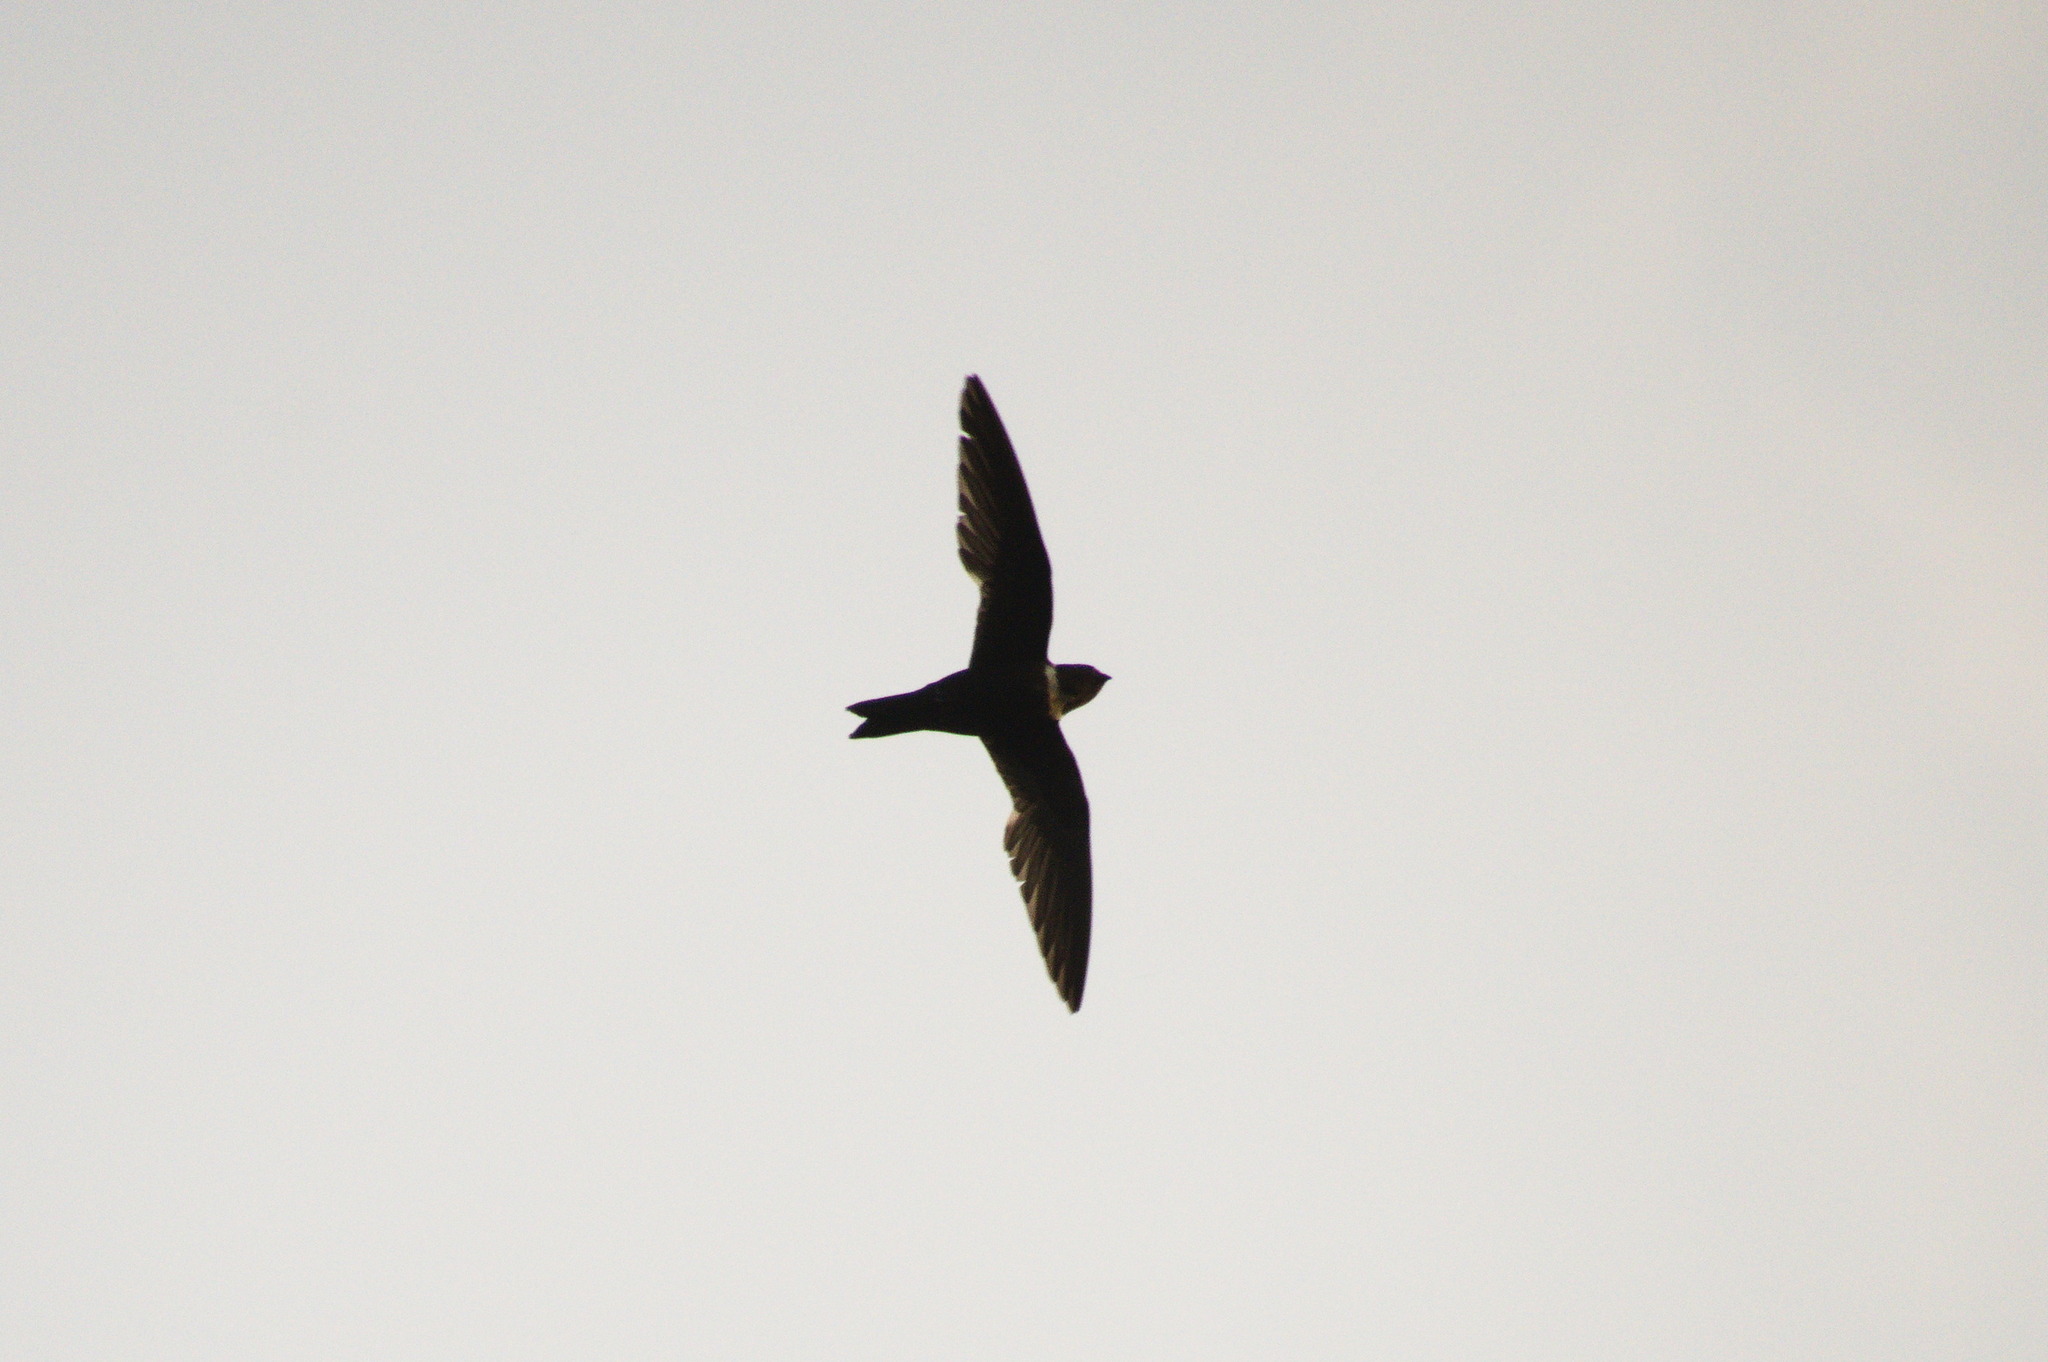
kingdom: Animalia
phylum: Chordata
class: Aves
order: Apodiformes
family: Apodidae
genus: Streptoprocne
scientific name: Streptoprocne zonaris
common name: White-collared swift
